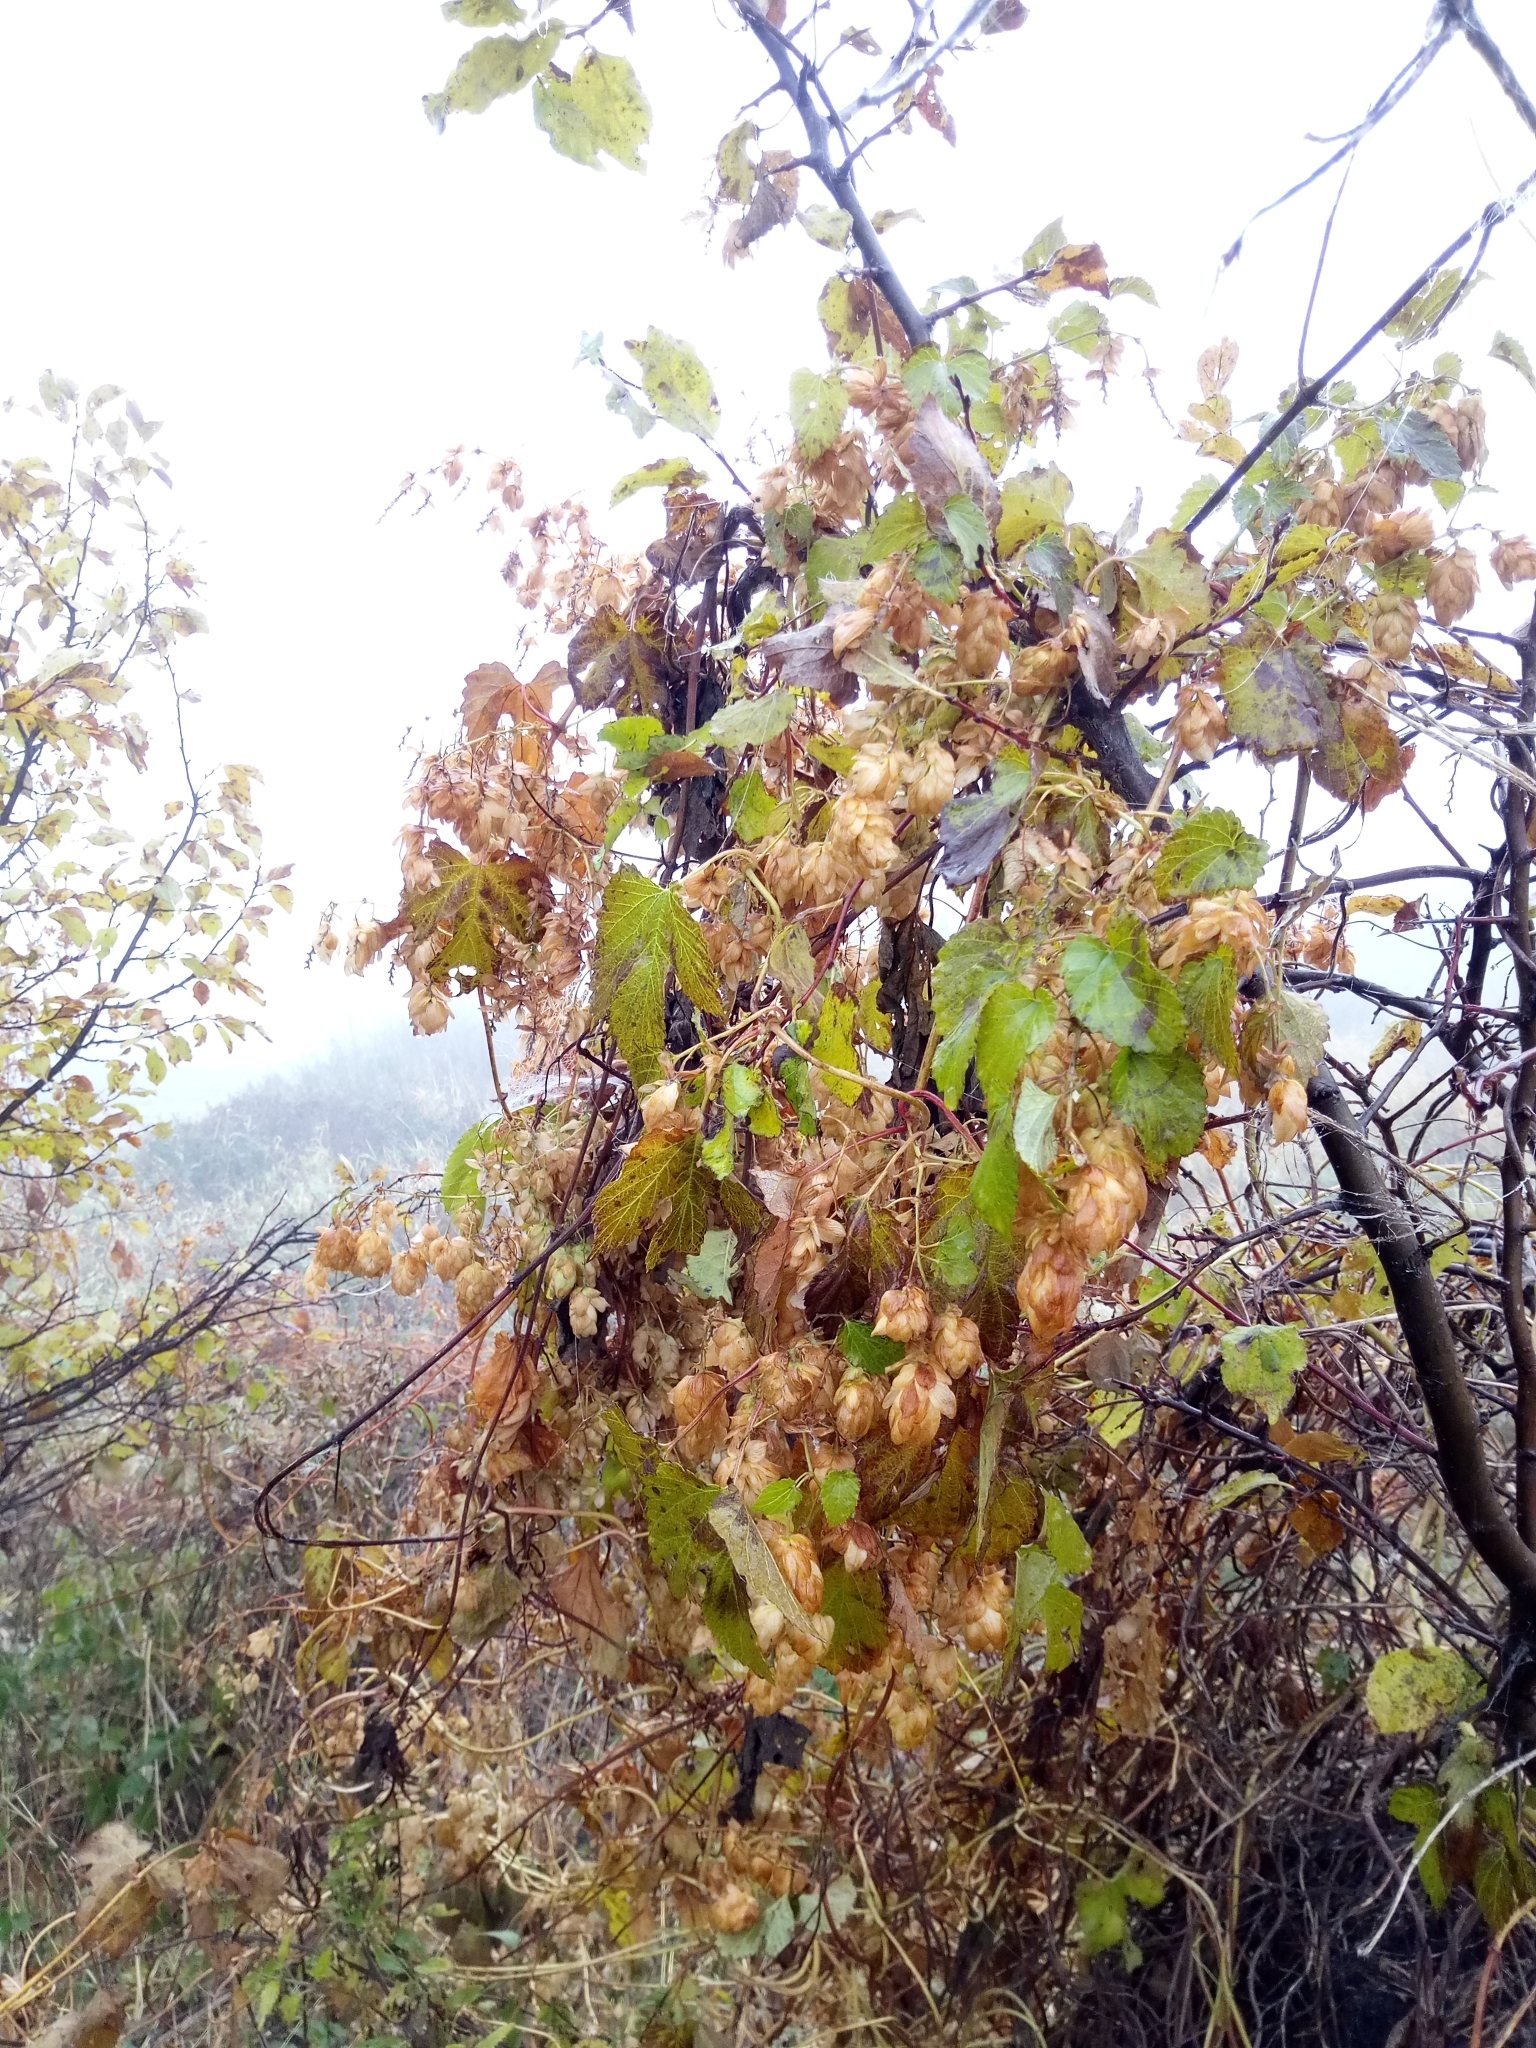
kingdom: Plantae
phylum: Tracheophyta
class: Magnoliopsida
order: Rosales
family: Cannabaceae
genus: Humulus
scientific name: Humulus lupulus
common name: Hop
